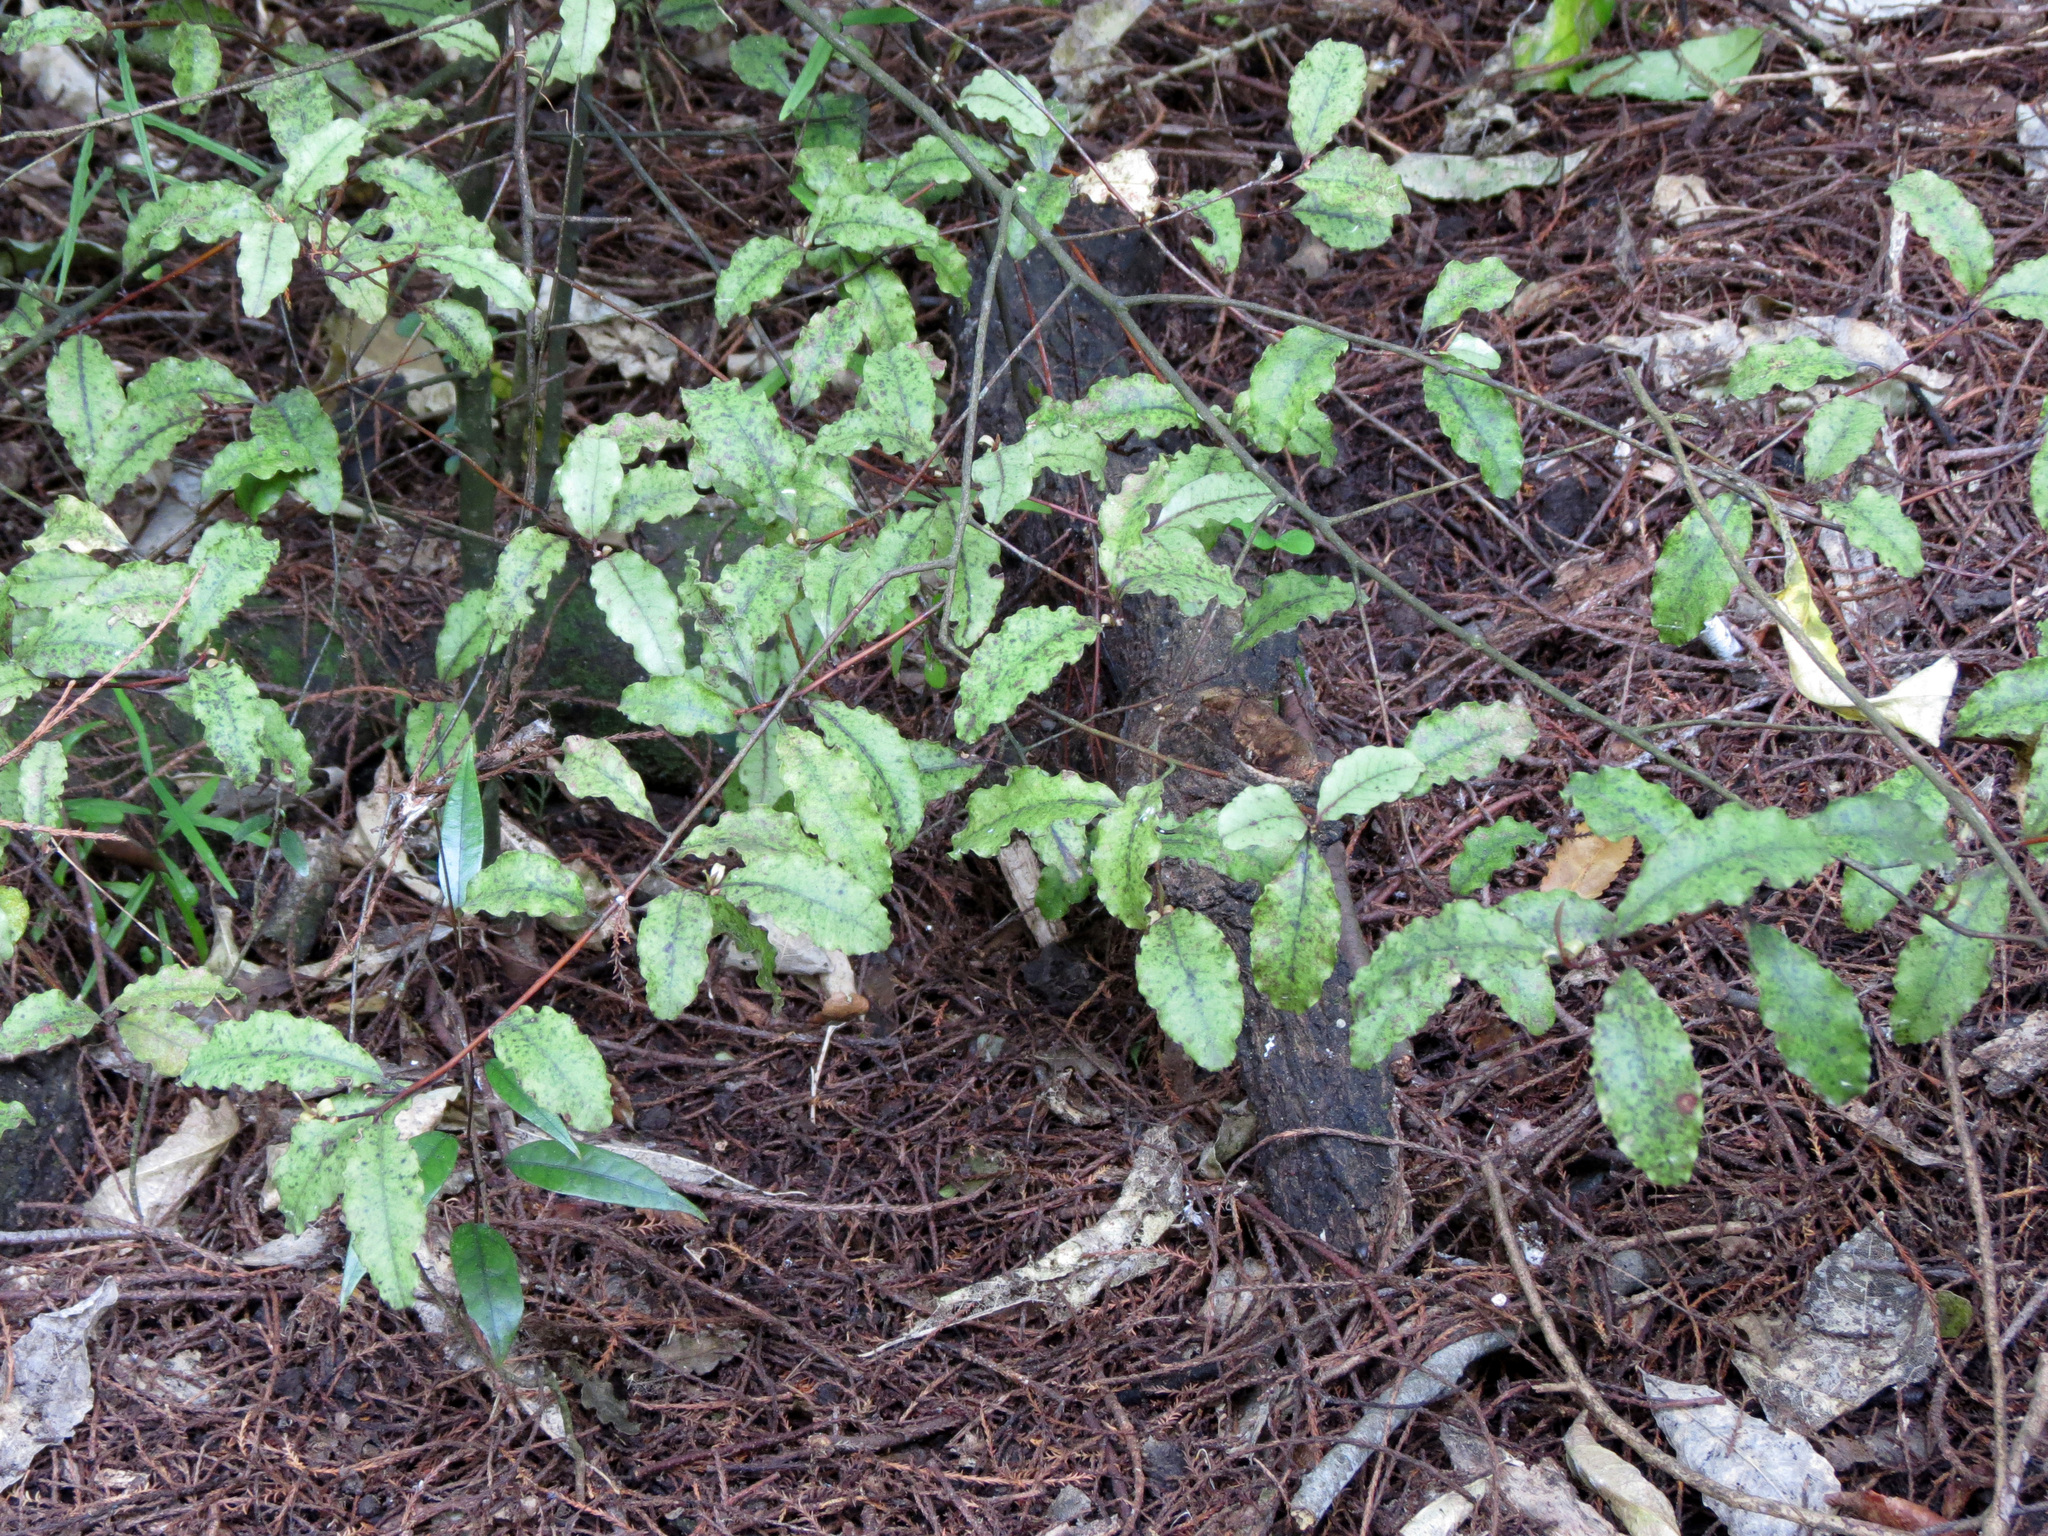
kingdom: Plantae
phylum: Tracheophyta
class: Magnoliopsida
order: Ericales
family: Primulaceae
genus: Myrsine
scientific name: Myrsine australis
